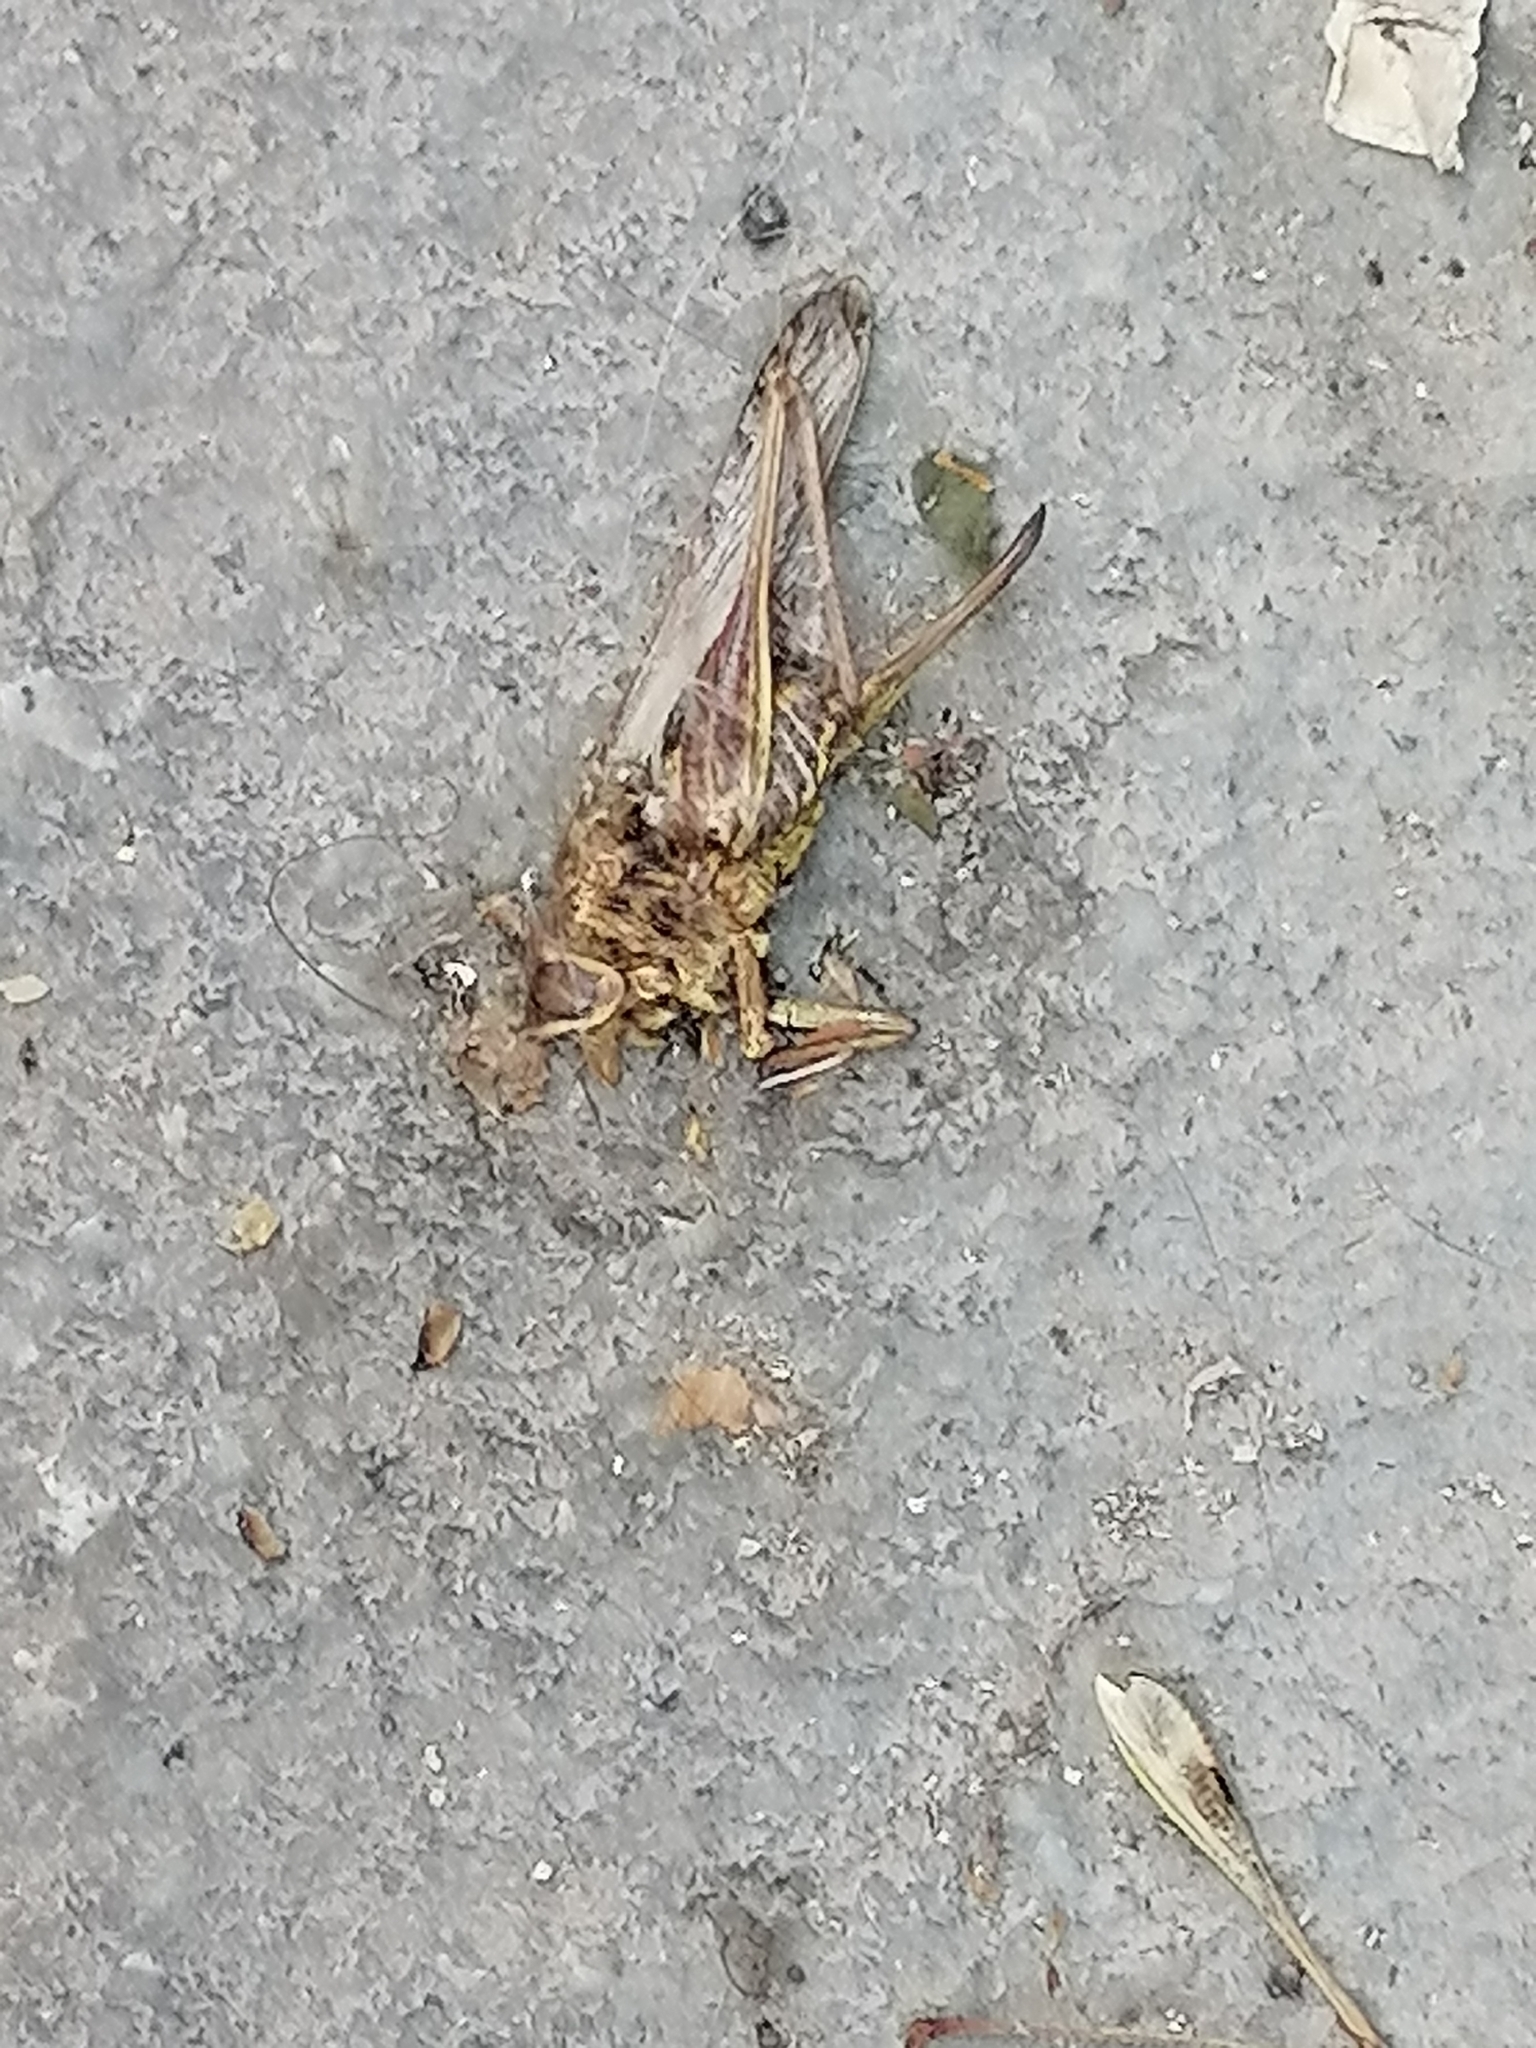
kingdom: Animalia
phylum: Arthropoda
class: Insecta
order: Orthoptera
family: Tettigoniidae
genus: Decticus
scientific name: Decticus albifrons
